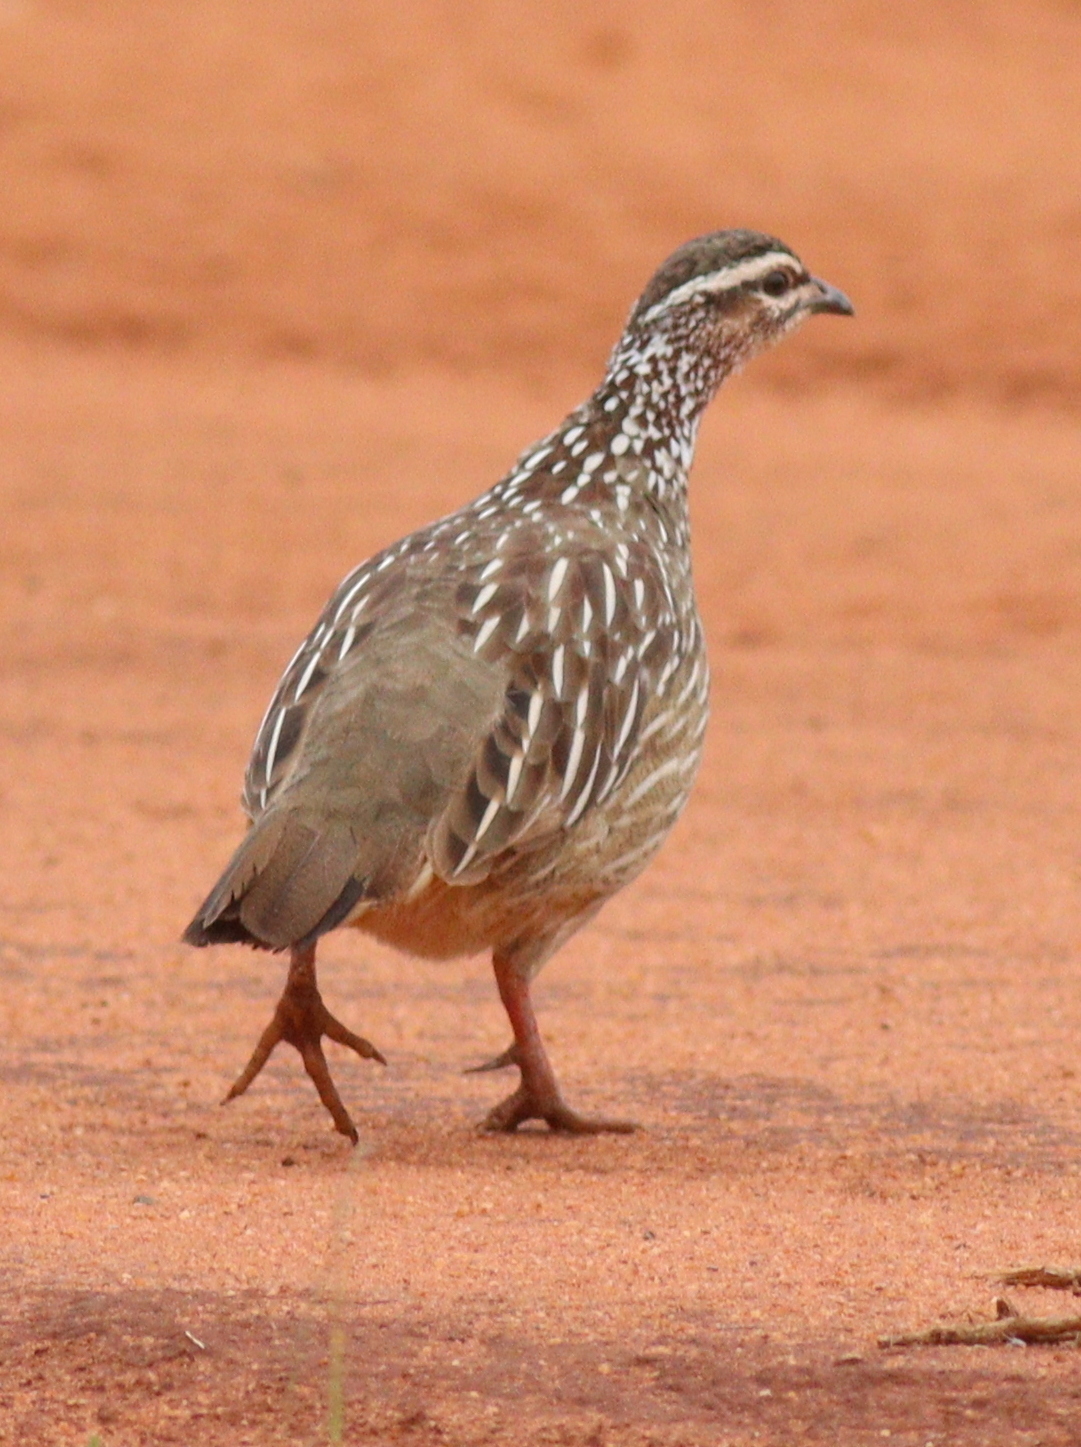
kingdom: Animalia
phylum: Chordata
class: Aves
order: Galliformes
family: Phasianidae
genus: Ortygornis
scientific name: Ortygornis sephaena
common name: Crested francolin
